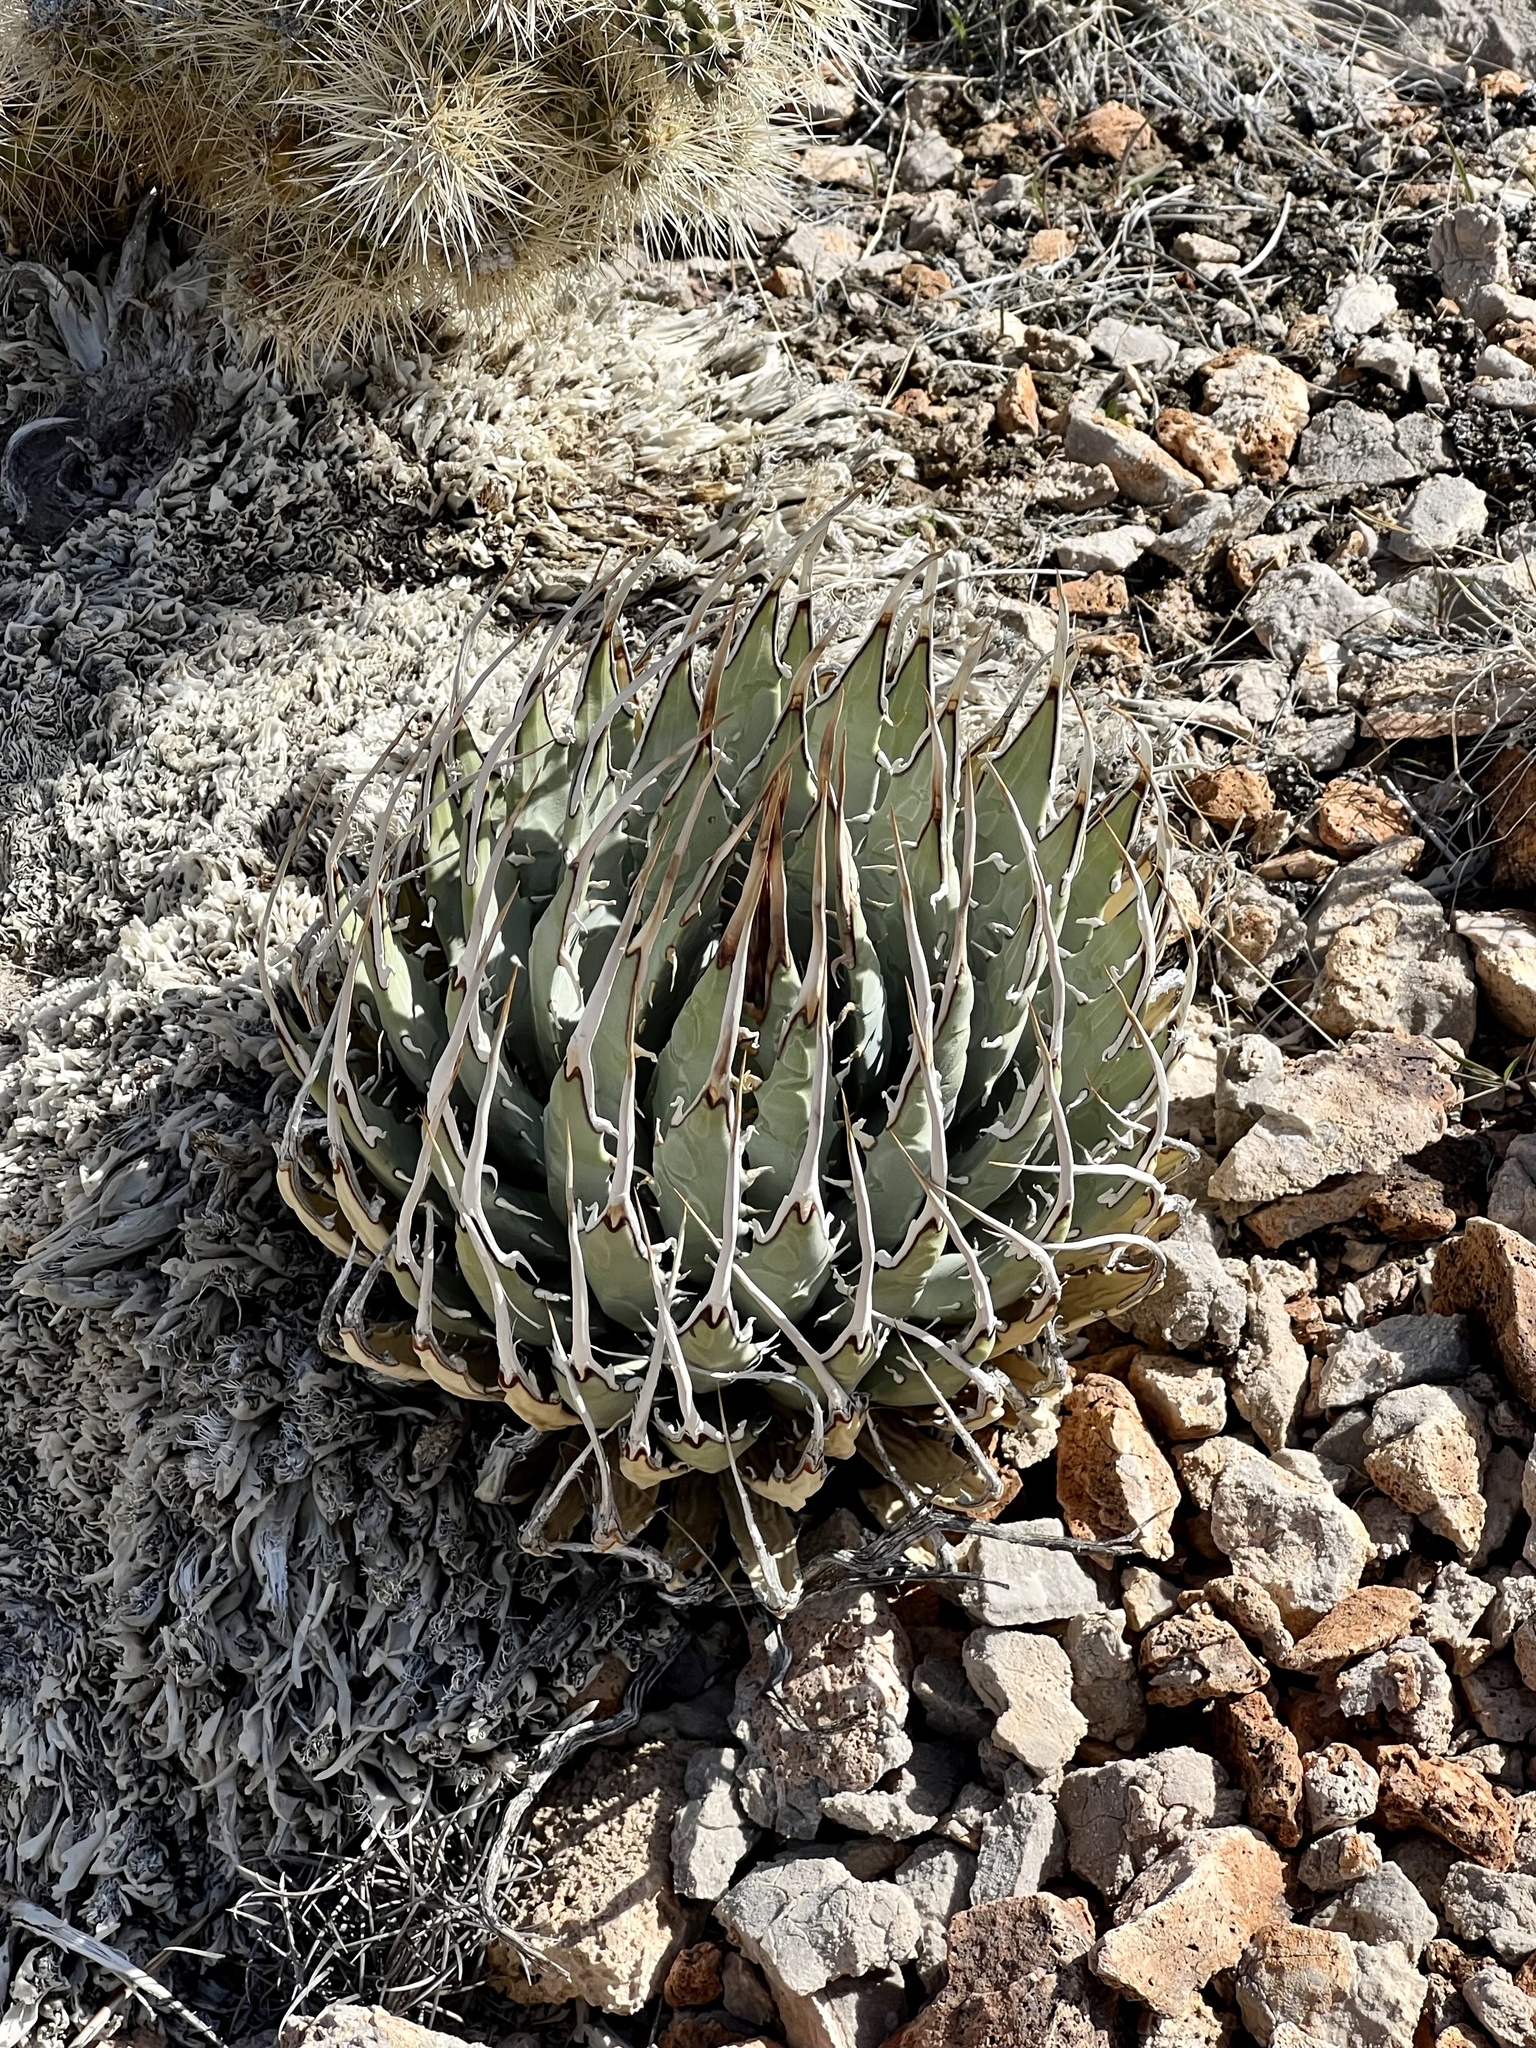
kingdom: Plantae
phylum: Tracheophyta
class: Liliopsida
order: Asparagales
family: Asparagaceae
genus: Agave
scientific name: Agave utahensis
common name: Utah agave
